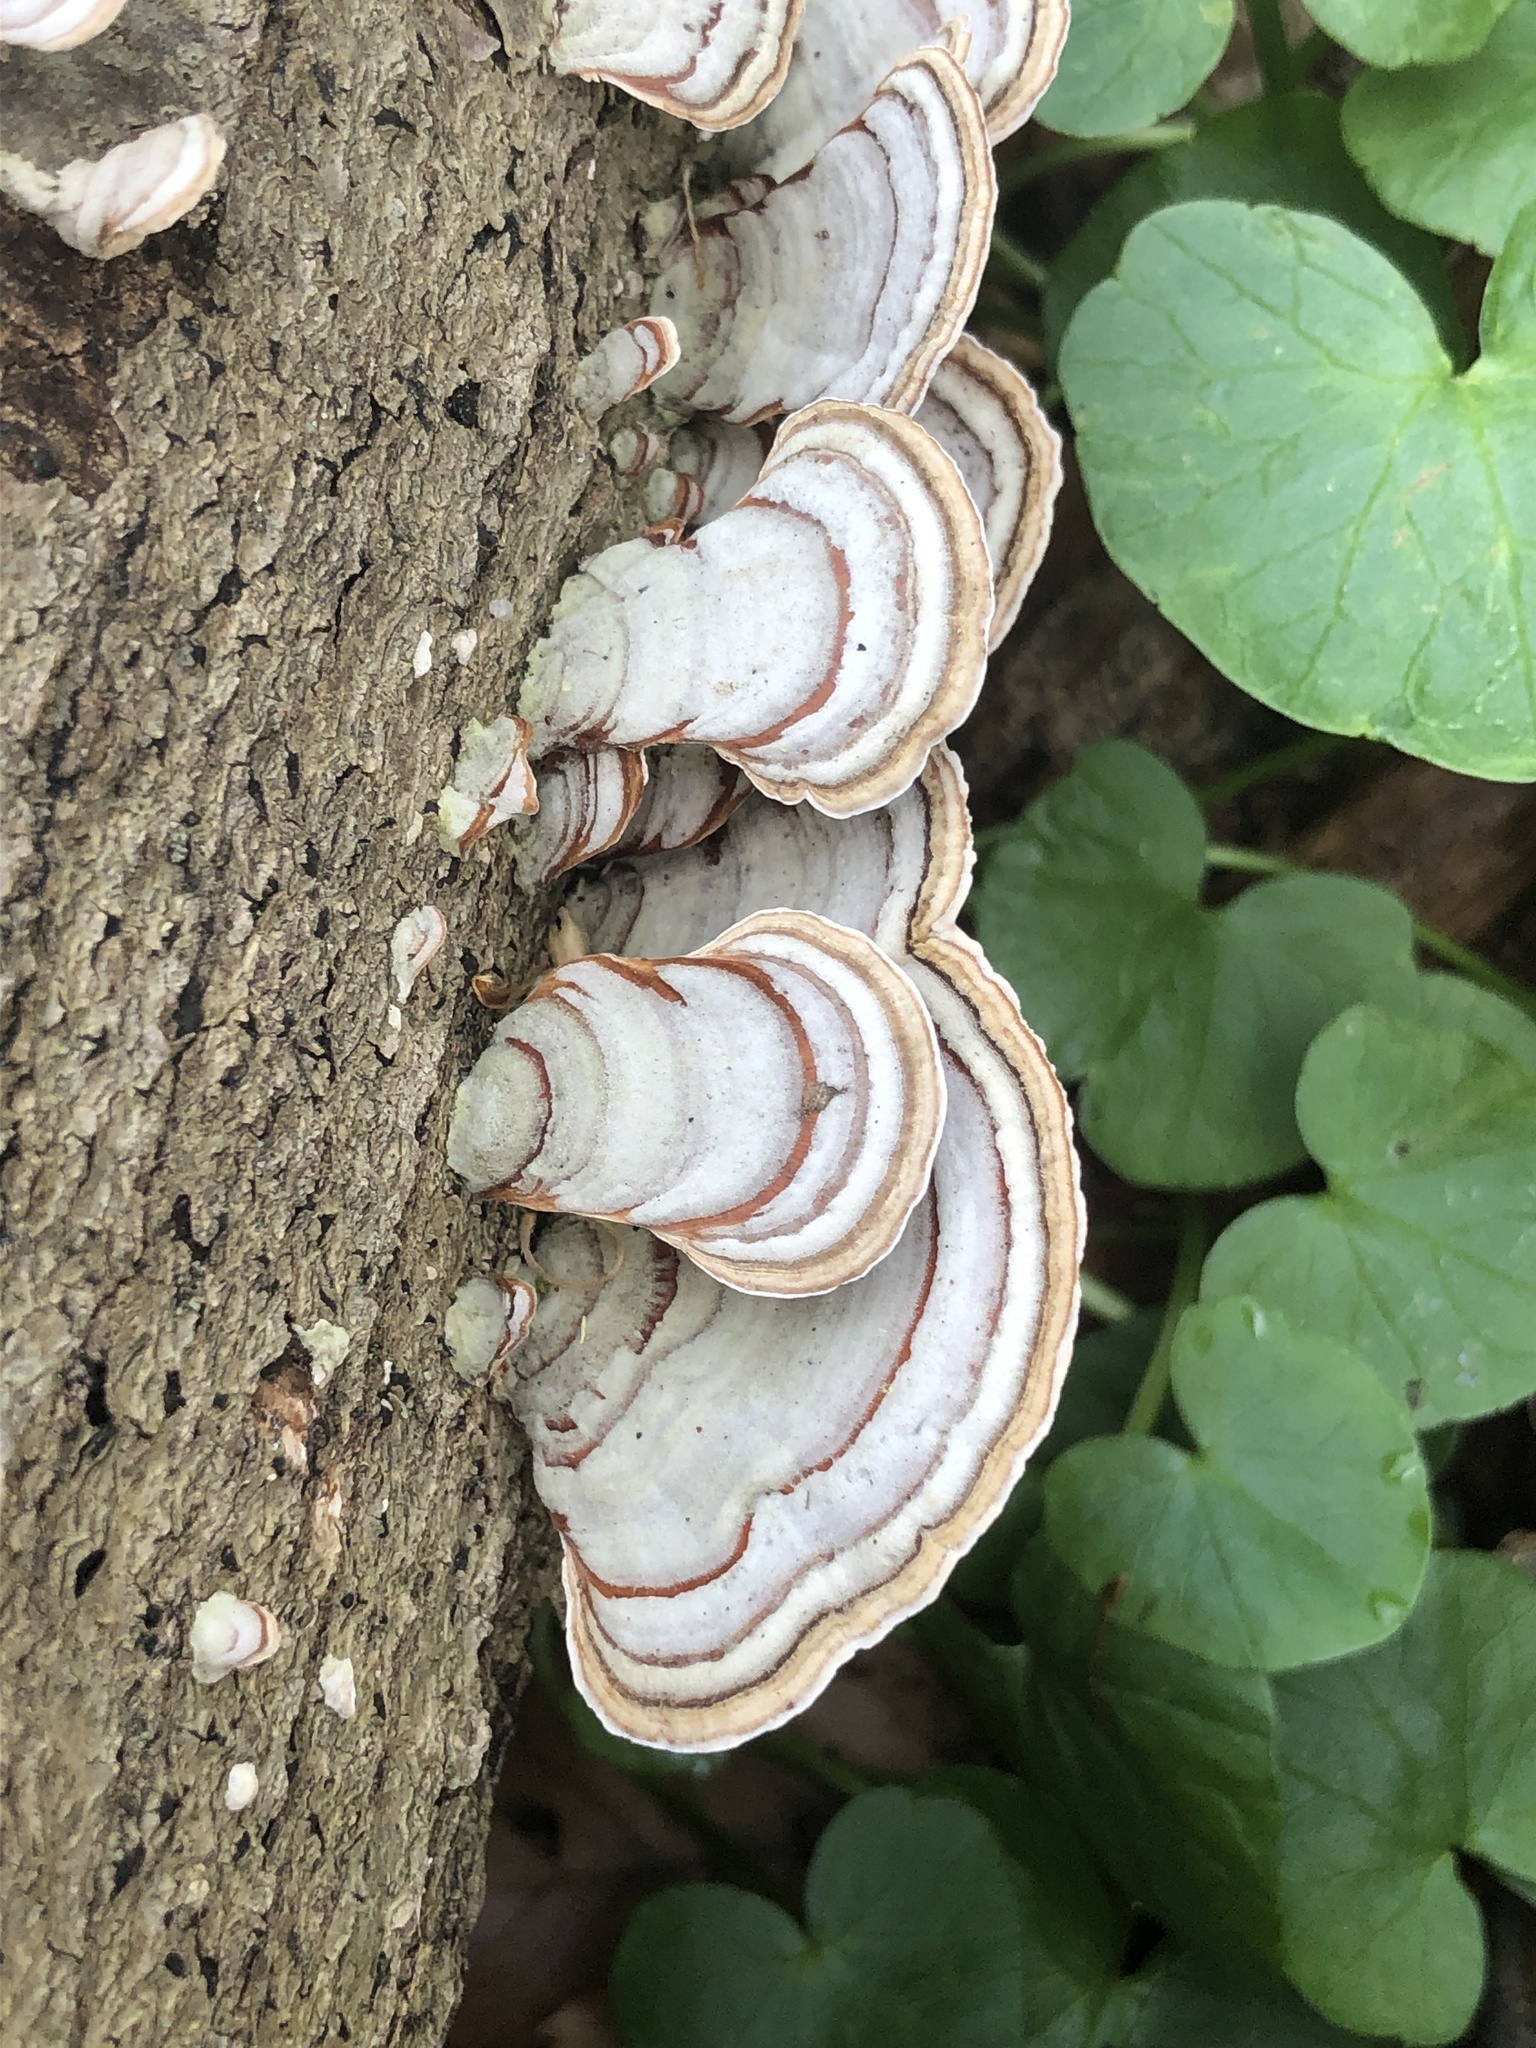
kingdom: Fungi
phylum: Basidiomycota
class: Agaricomycetes
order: Russulales
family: Stereaceae
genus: Stereum
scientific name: Stereum lobatum
